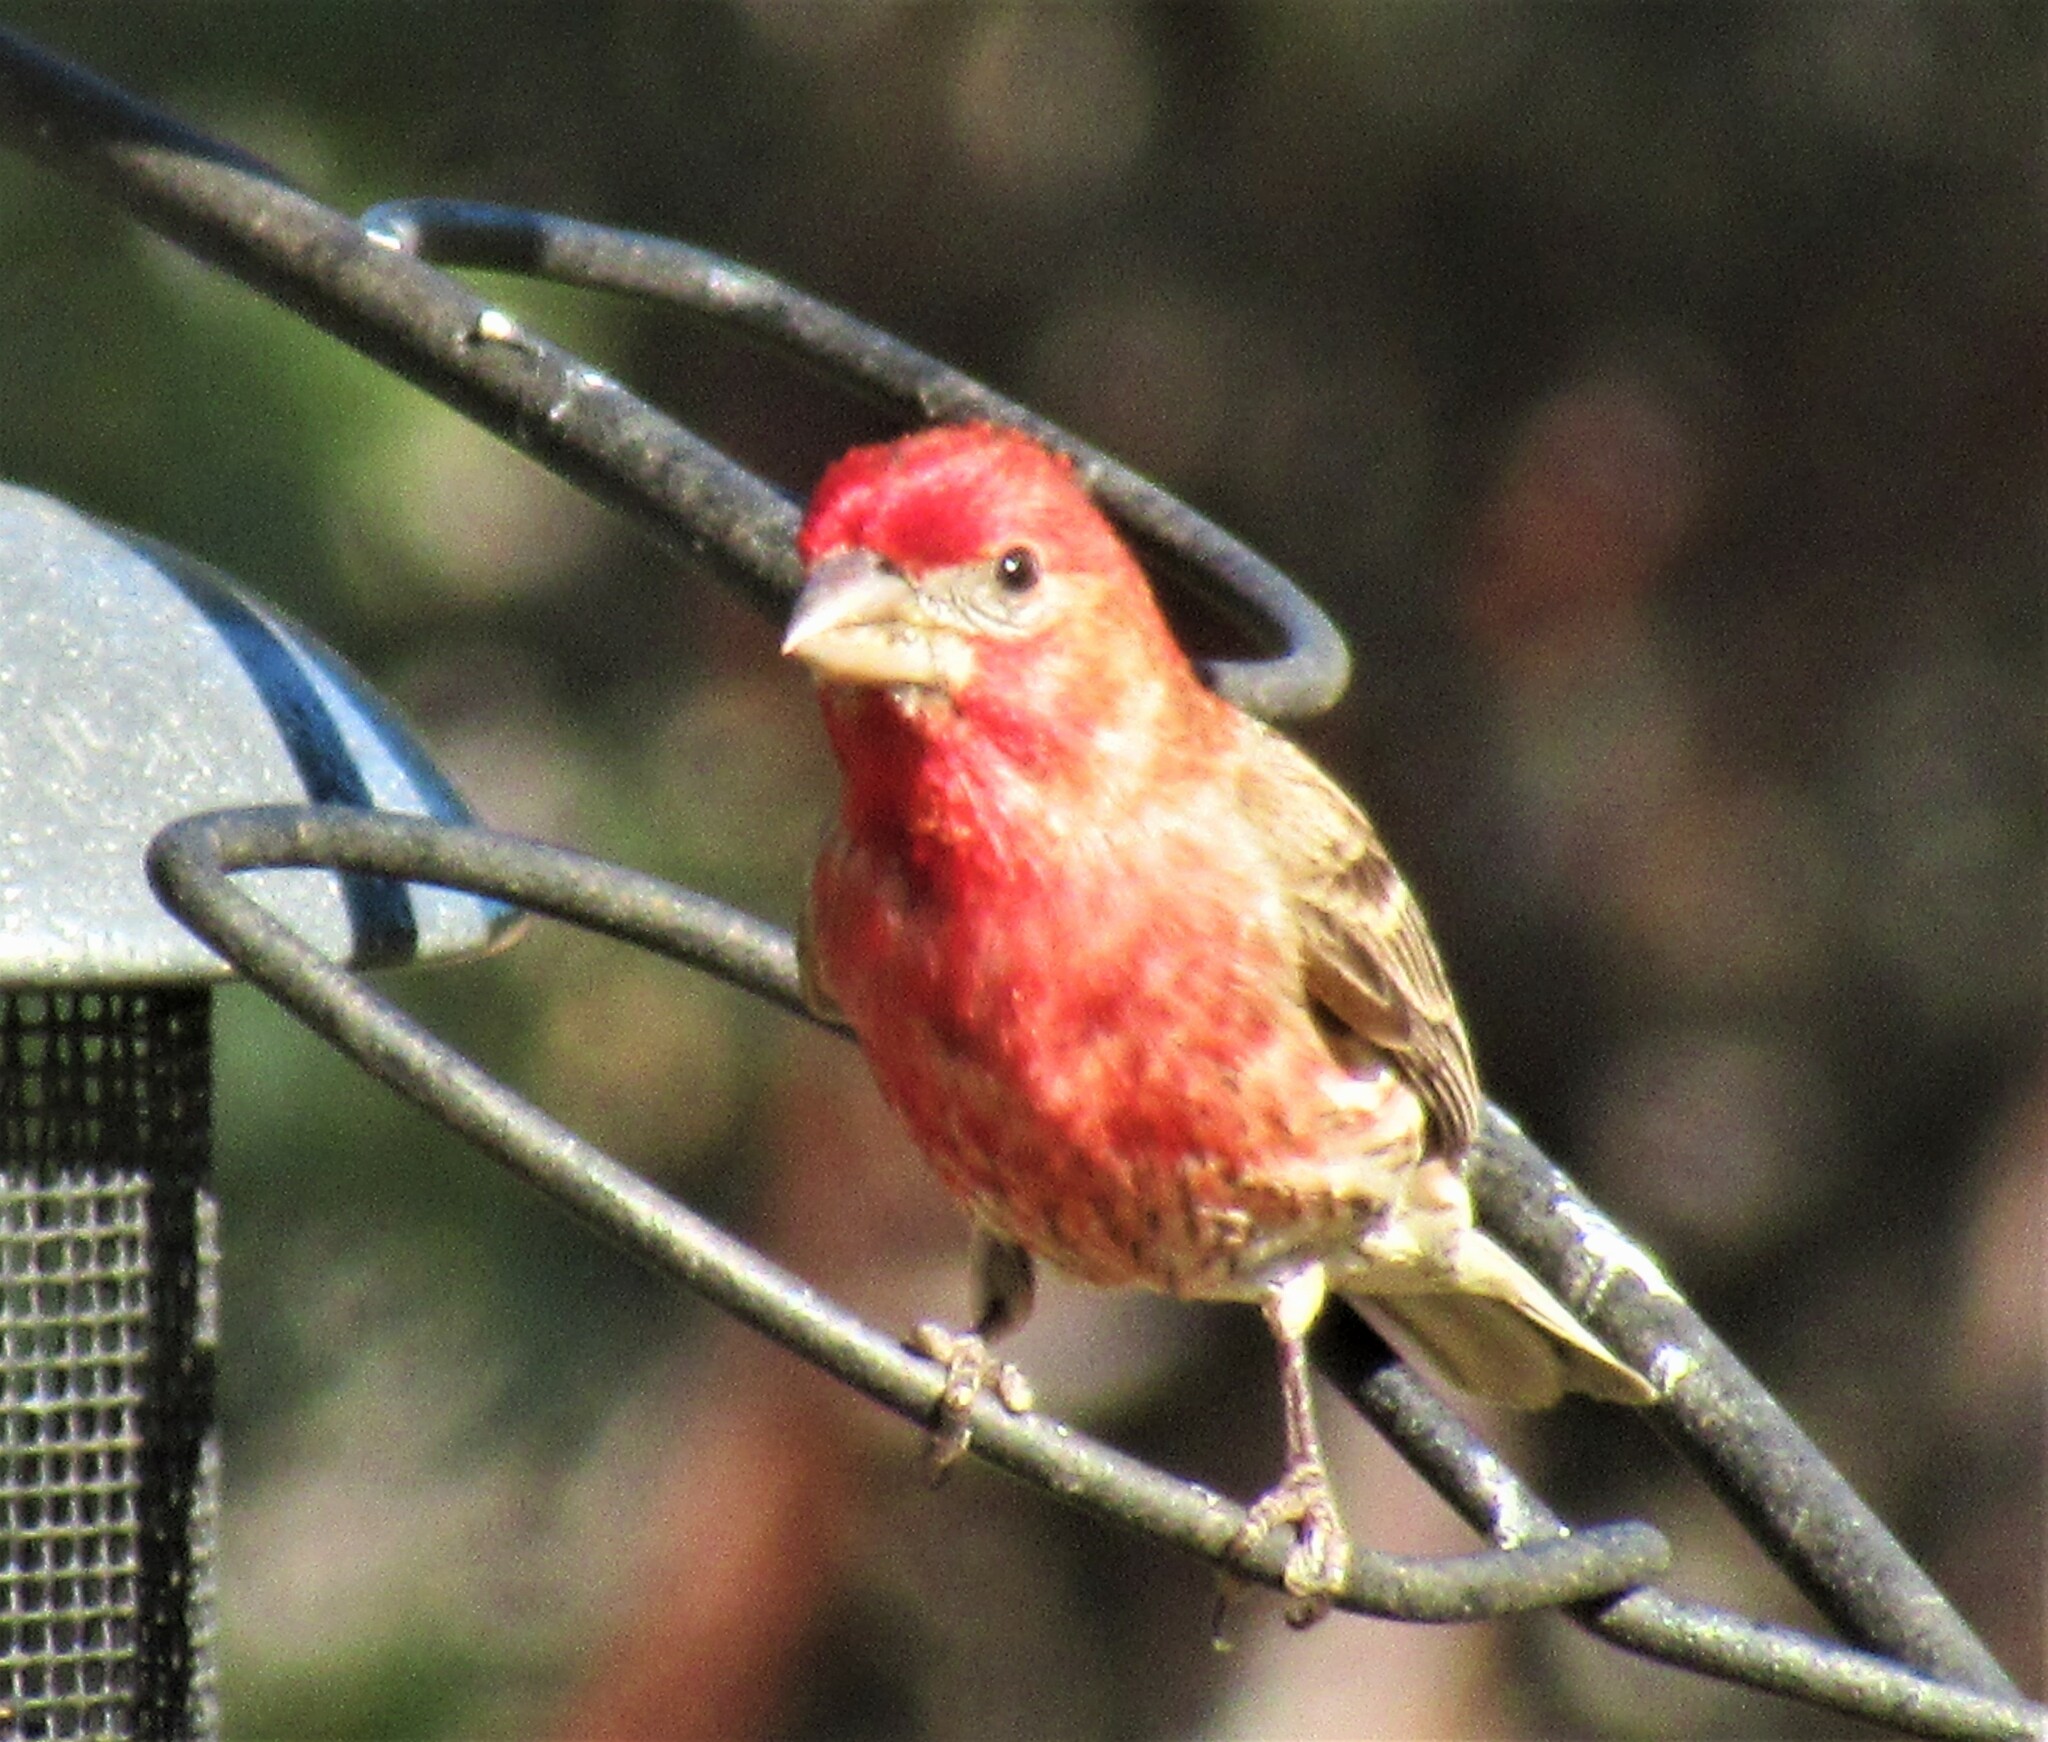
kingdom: Animalia
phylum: Chordata
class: Aves
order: Passeriformes
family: Fringillidae
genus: Haemorhous
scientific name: Haemorhous mexicanus
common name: House finch
